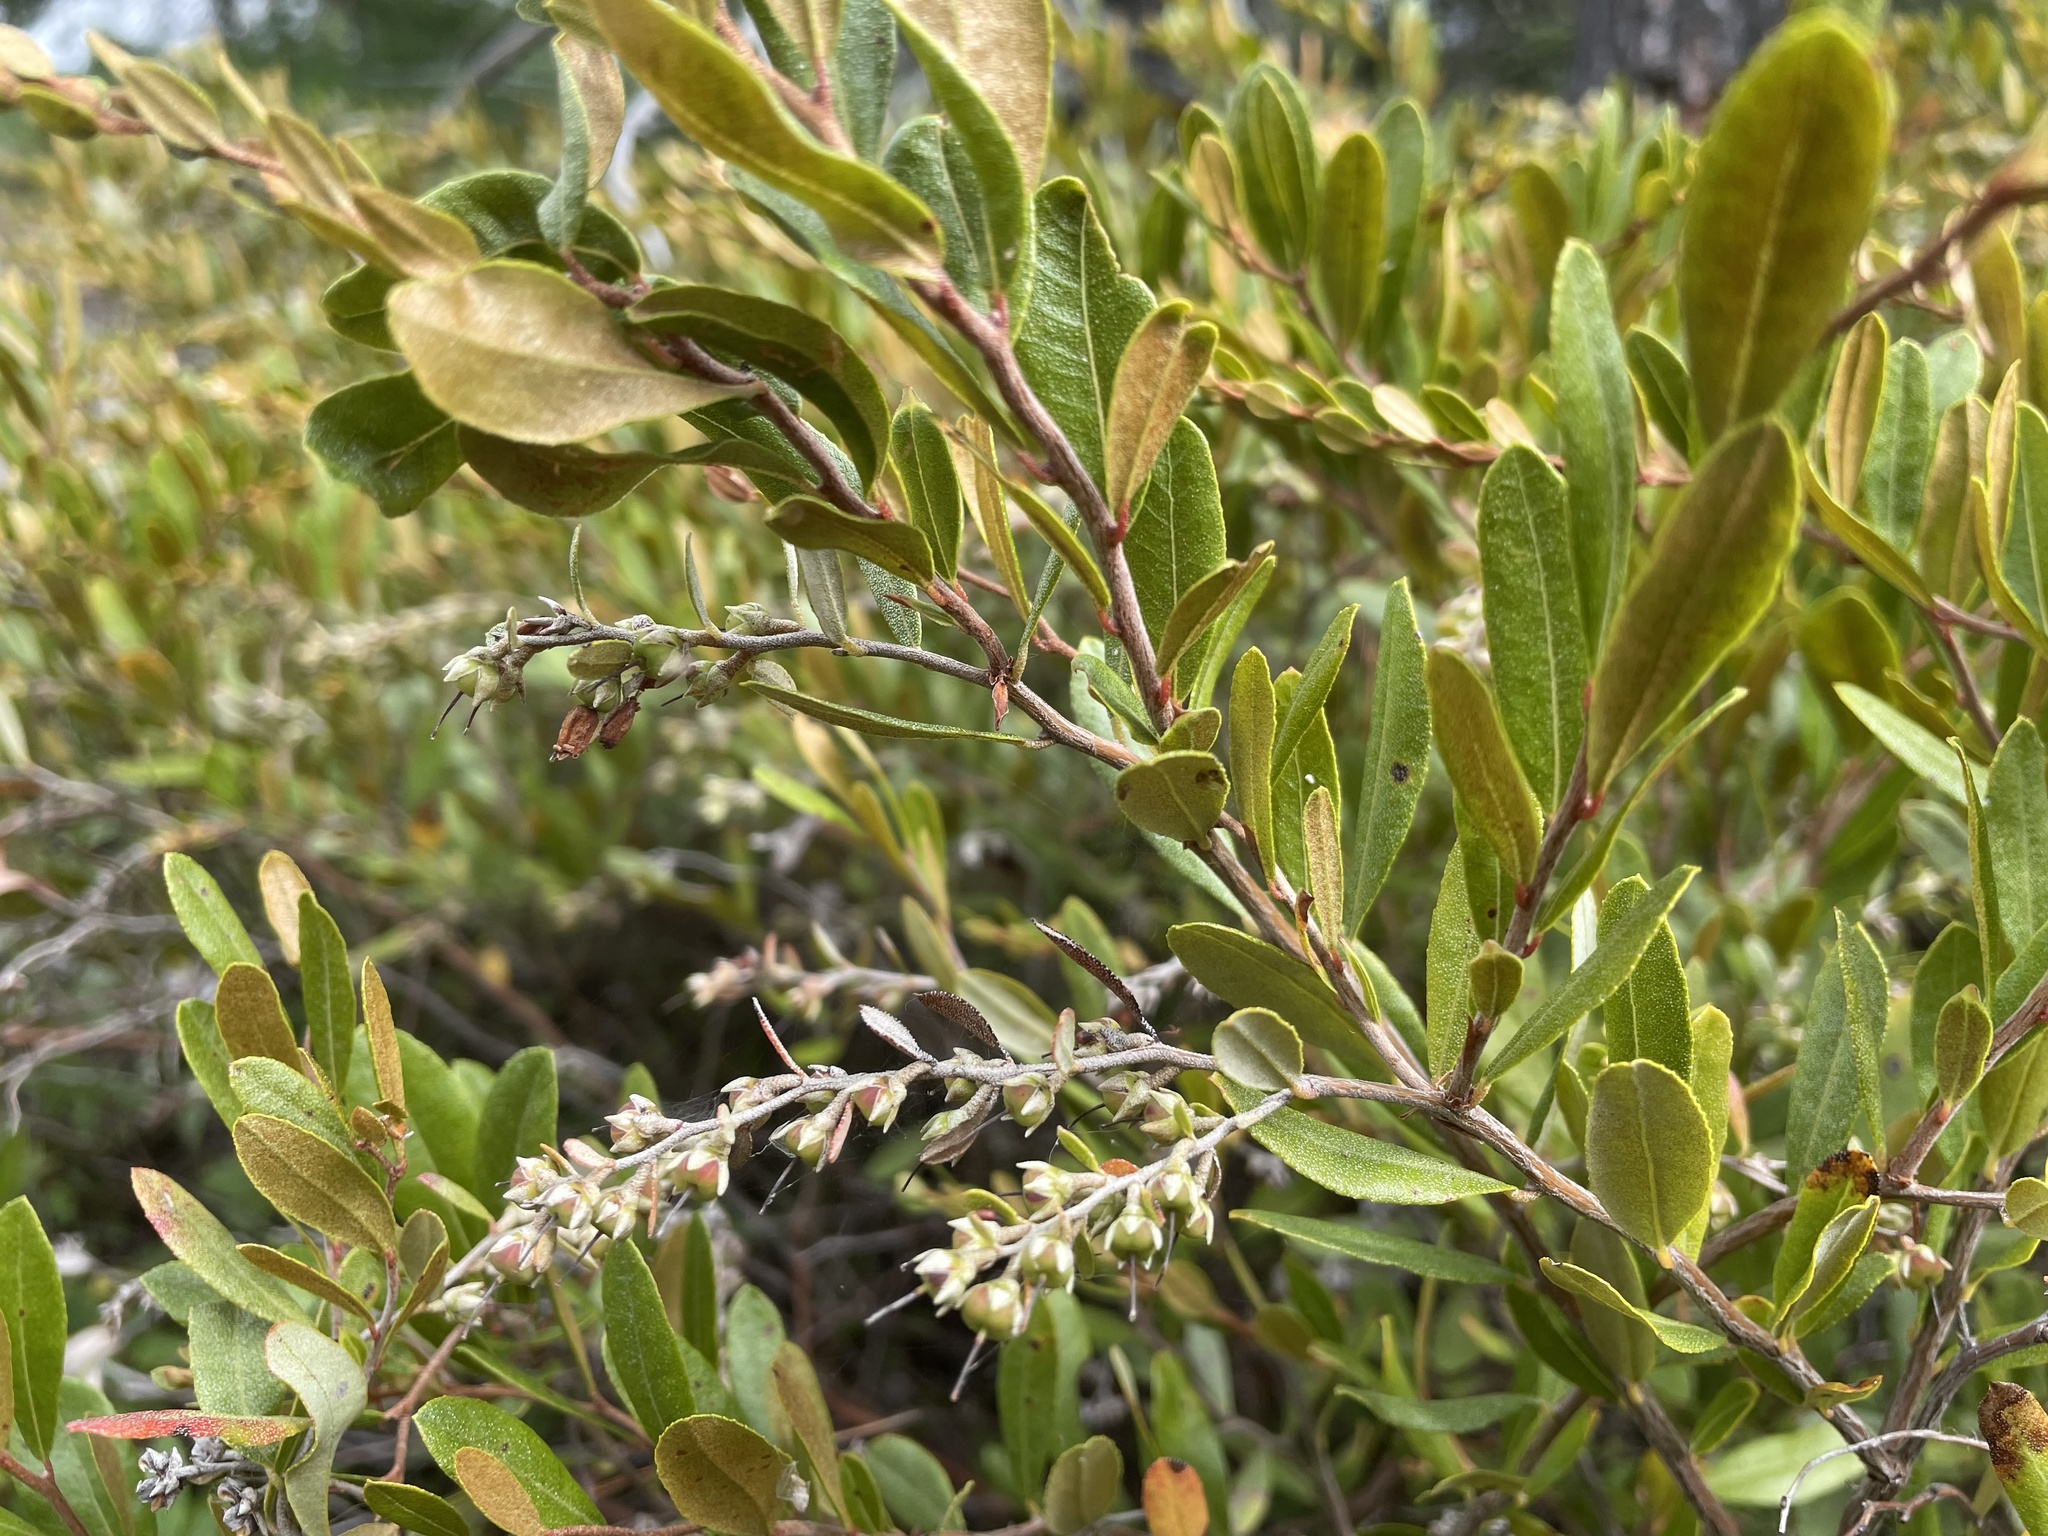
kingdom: Plantae
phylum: Tracheophyta
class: Magnoliopsida
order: Ericales
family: Ericaceae
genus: Chamaedaphne
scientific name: Chamaedaphne calyculata
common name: Leatherleaf
